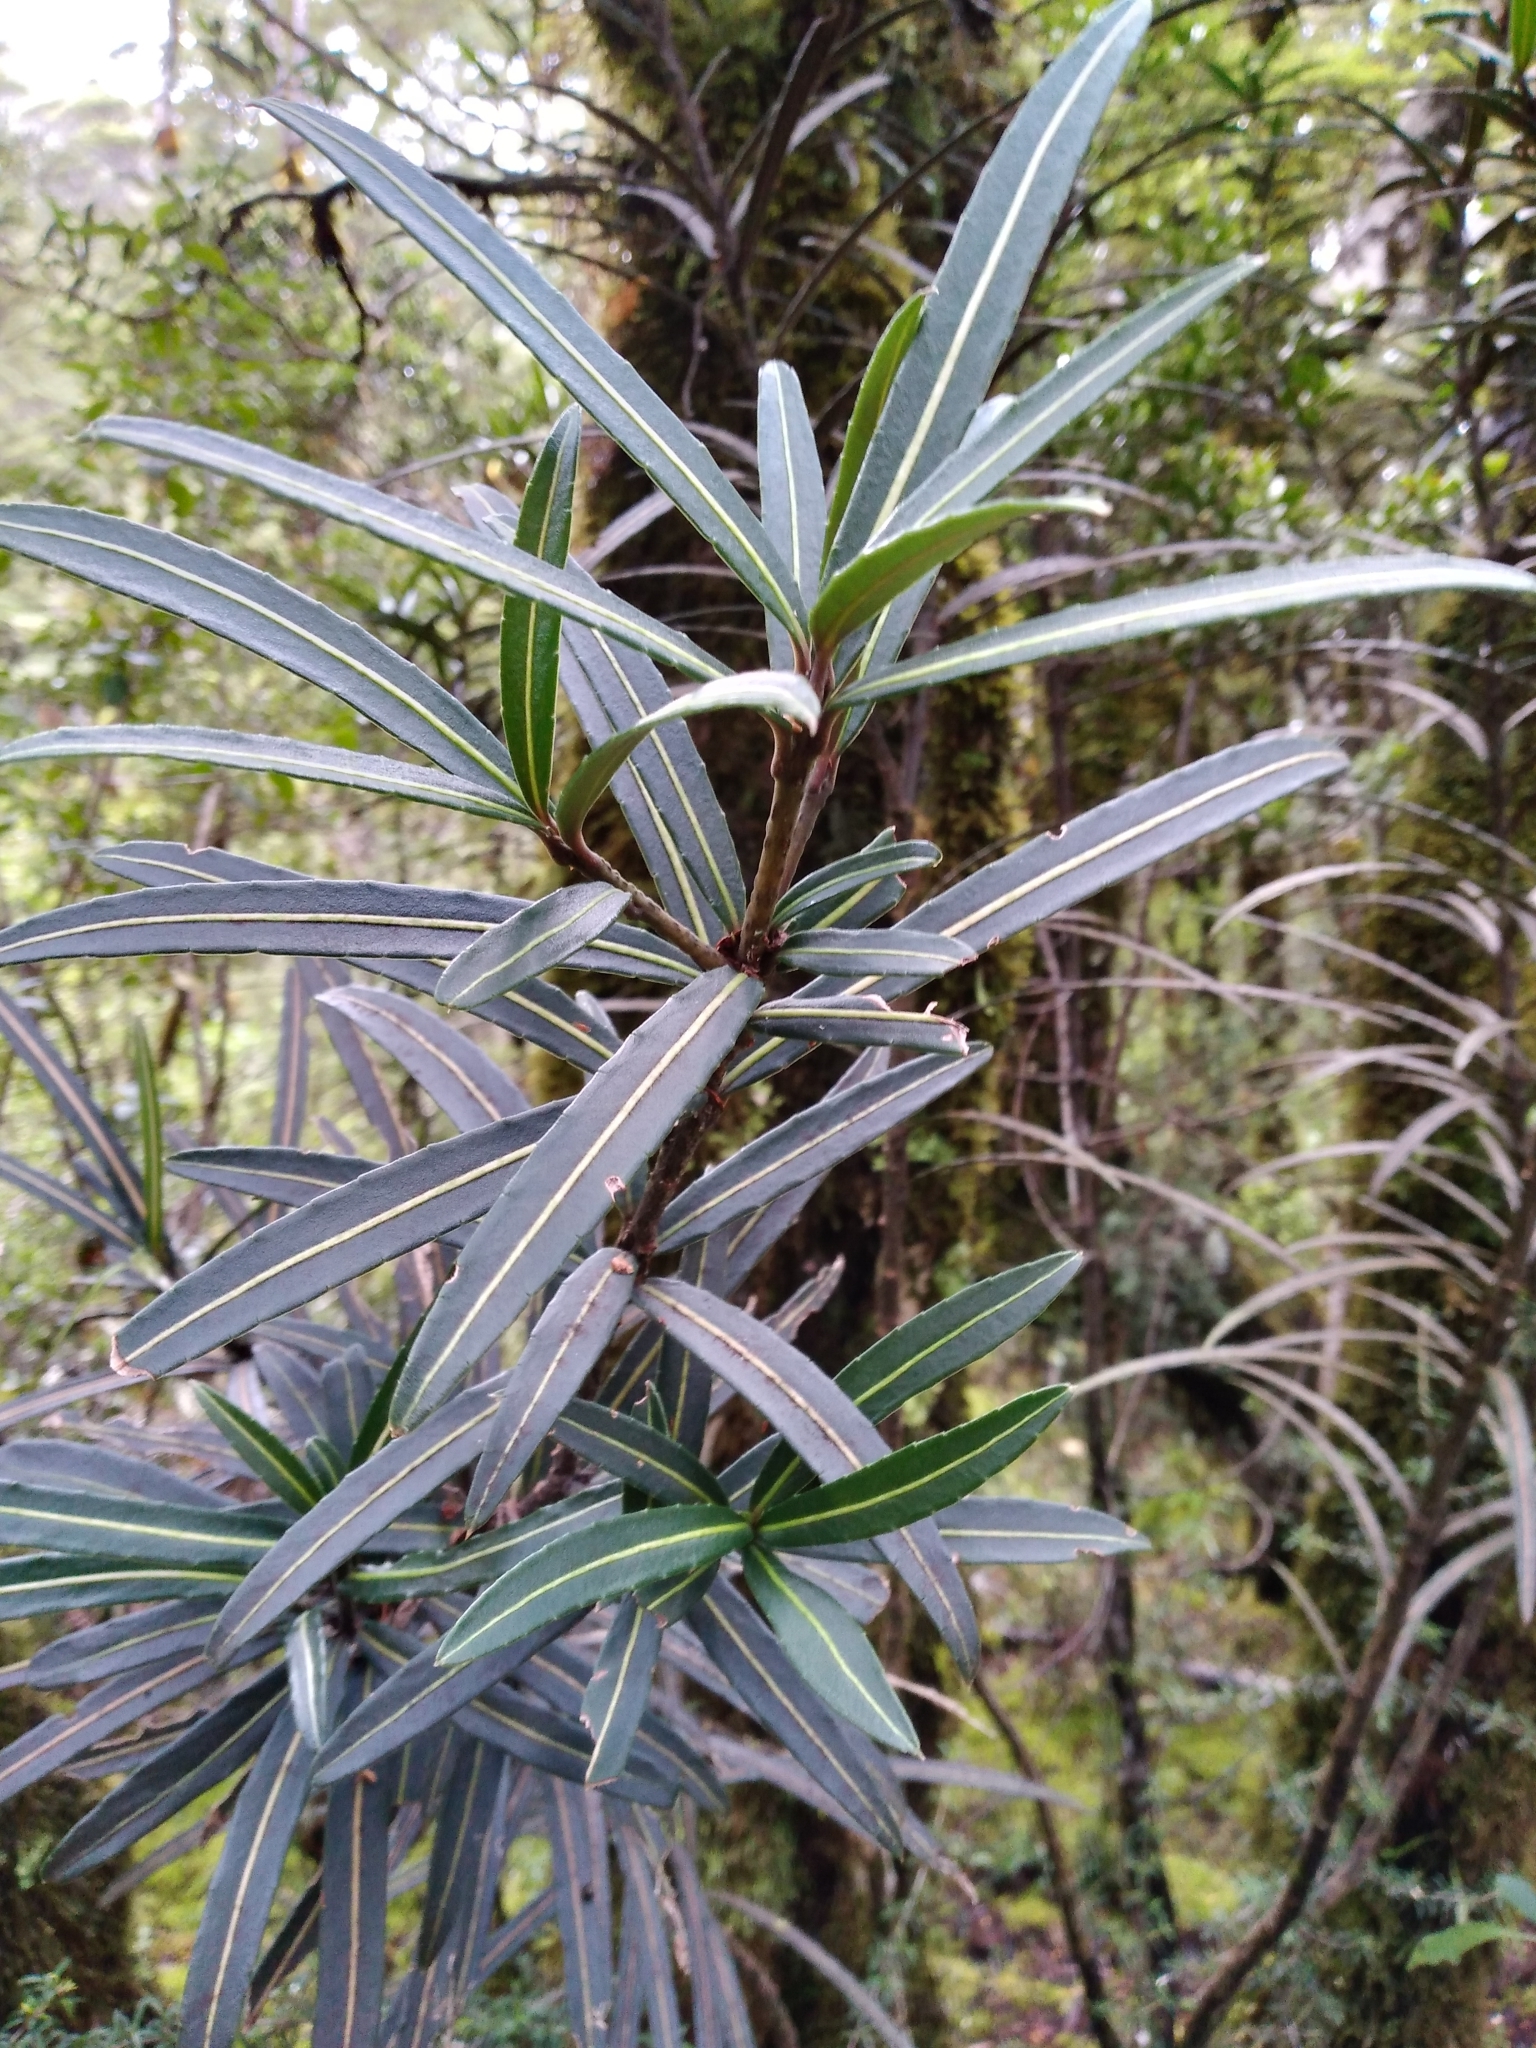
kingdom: Plantae
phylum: Tracheophyta
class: Magnoliopsida
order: Apiales
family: Araliaceae
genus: Pseudopanax
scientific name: Pseudopanax linearis
